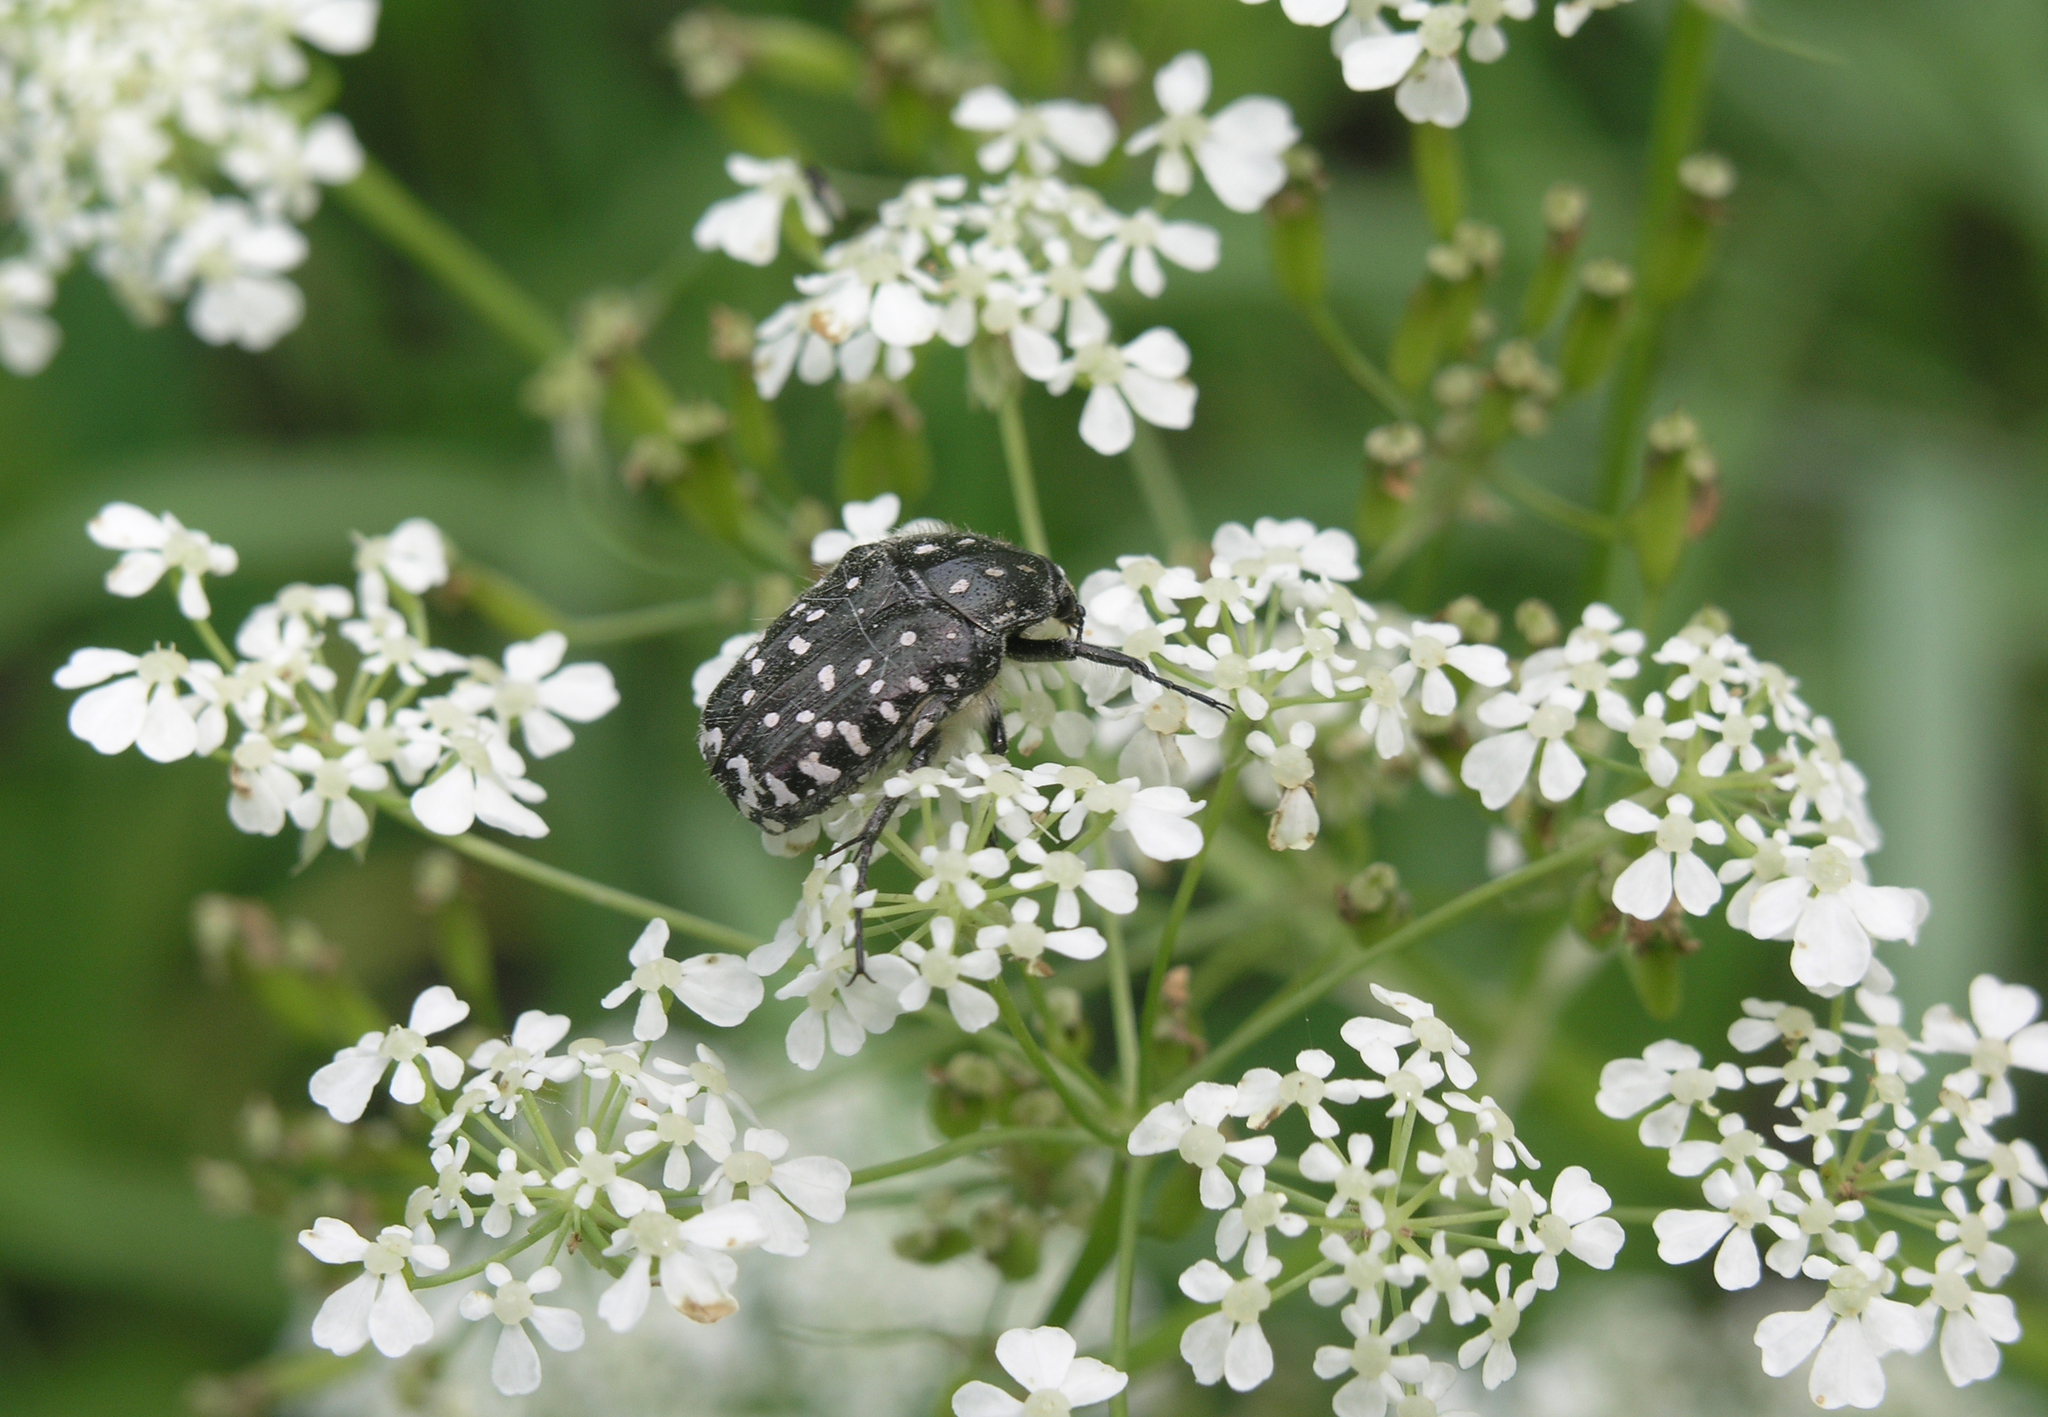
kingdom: Animalia
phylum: Arthropoda
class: Insecta
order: Coleoptera
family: Scarabaeidae
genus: Oxythyrea
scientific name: Oxythyrea funesta
